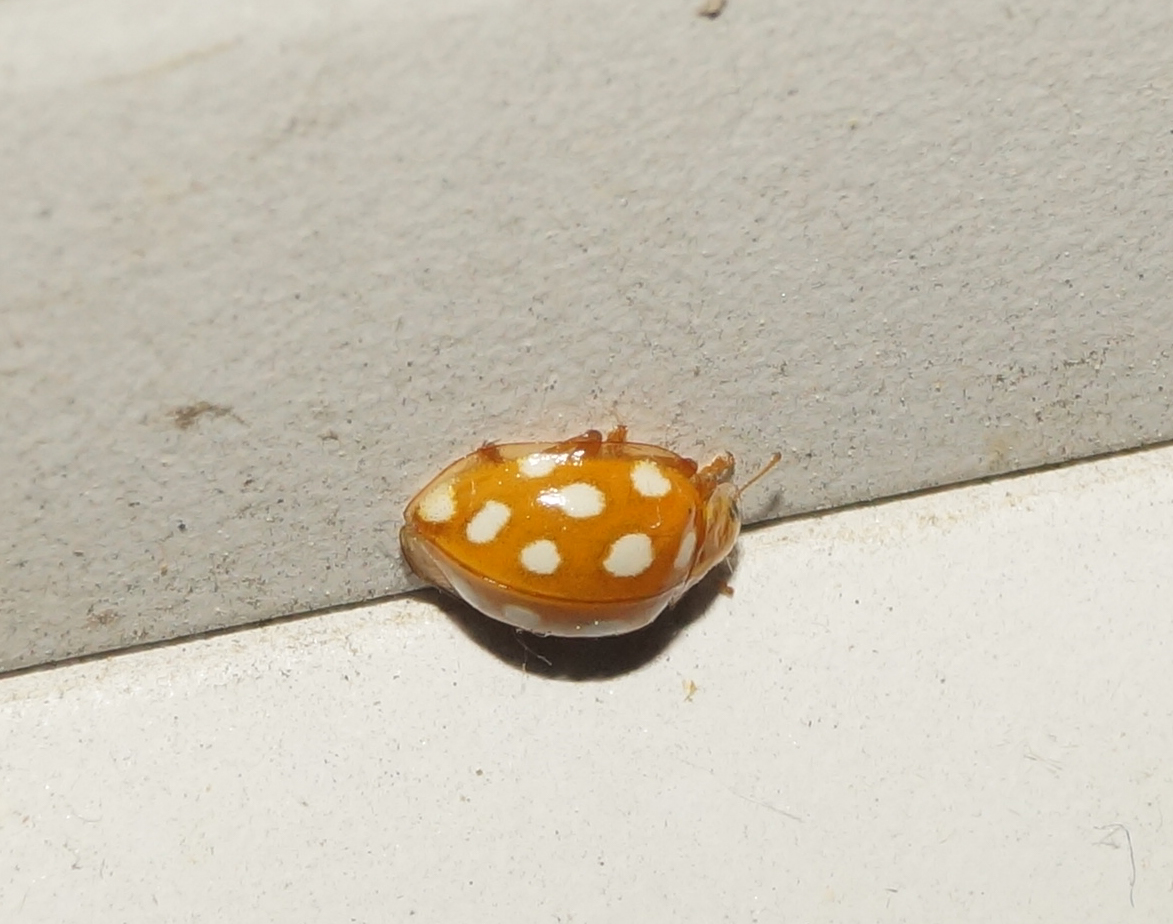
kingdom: Animalia
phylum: Arthropoda
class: Insecta
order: Coleoptera
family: Coccinellidae
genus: Halyzia
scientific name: Halyzia sedecimguttata
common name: Orange ladybird
